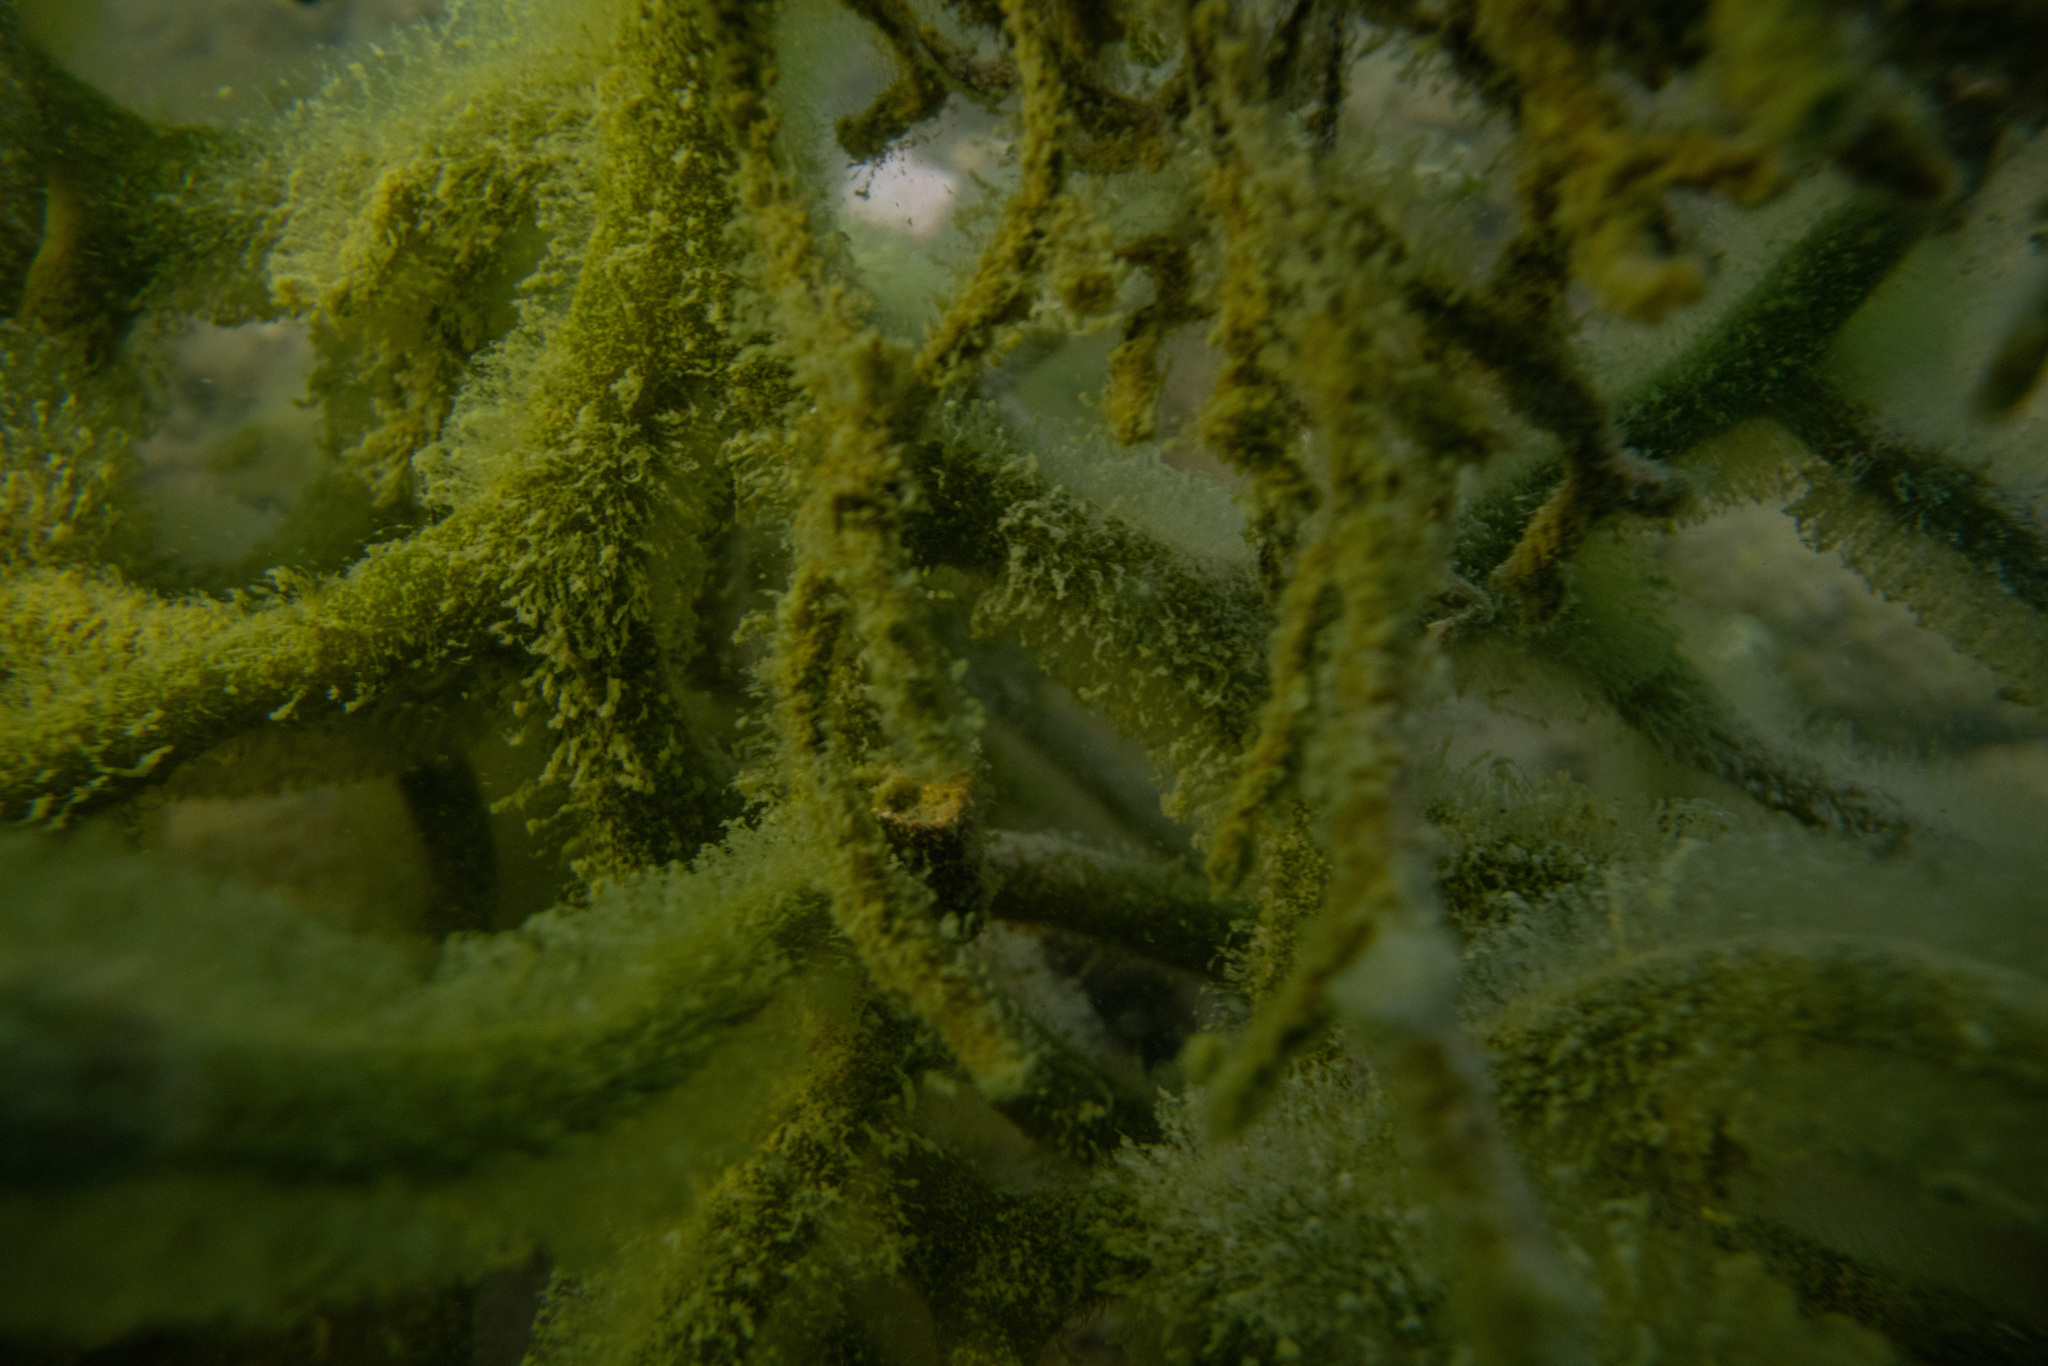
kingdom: Plantae
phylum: Chlorophyta
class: Ulvophyceae
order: Bryopsidales
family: Codiaceae
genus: Codium
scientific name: Codium fragile
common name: Dead man's fingers
